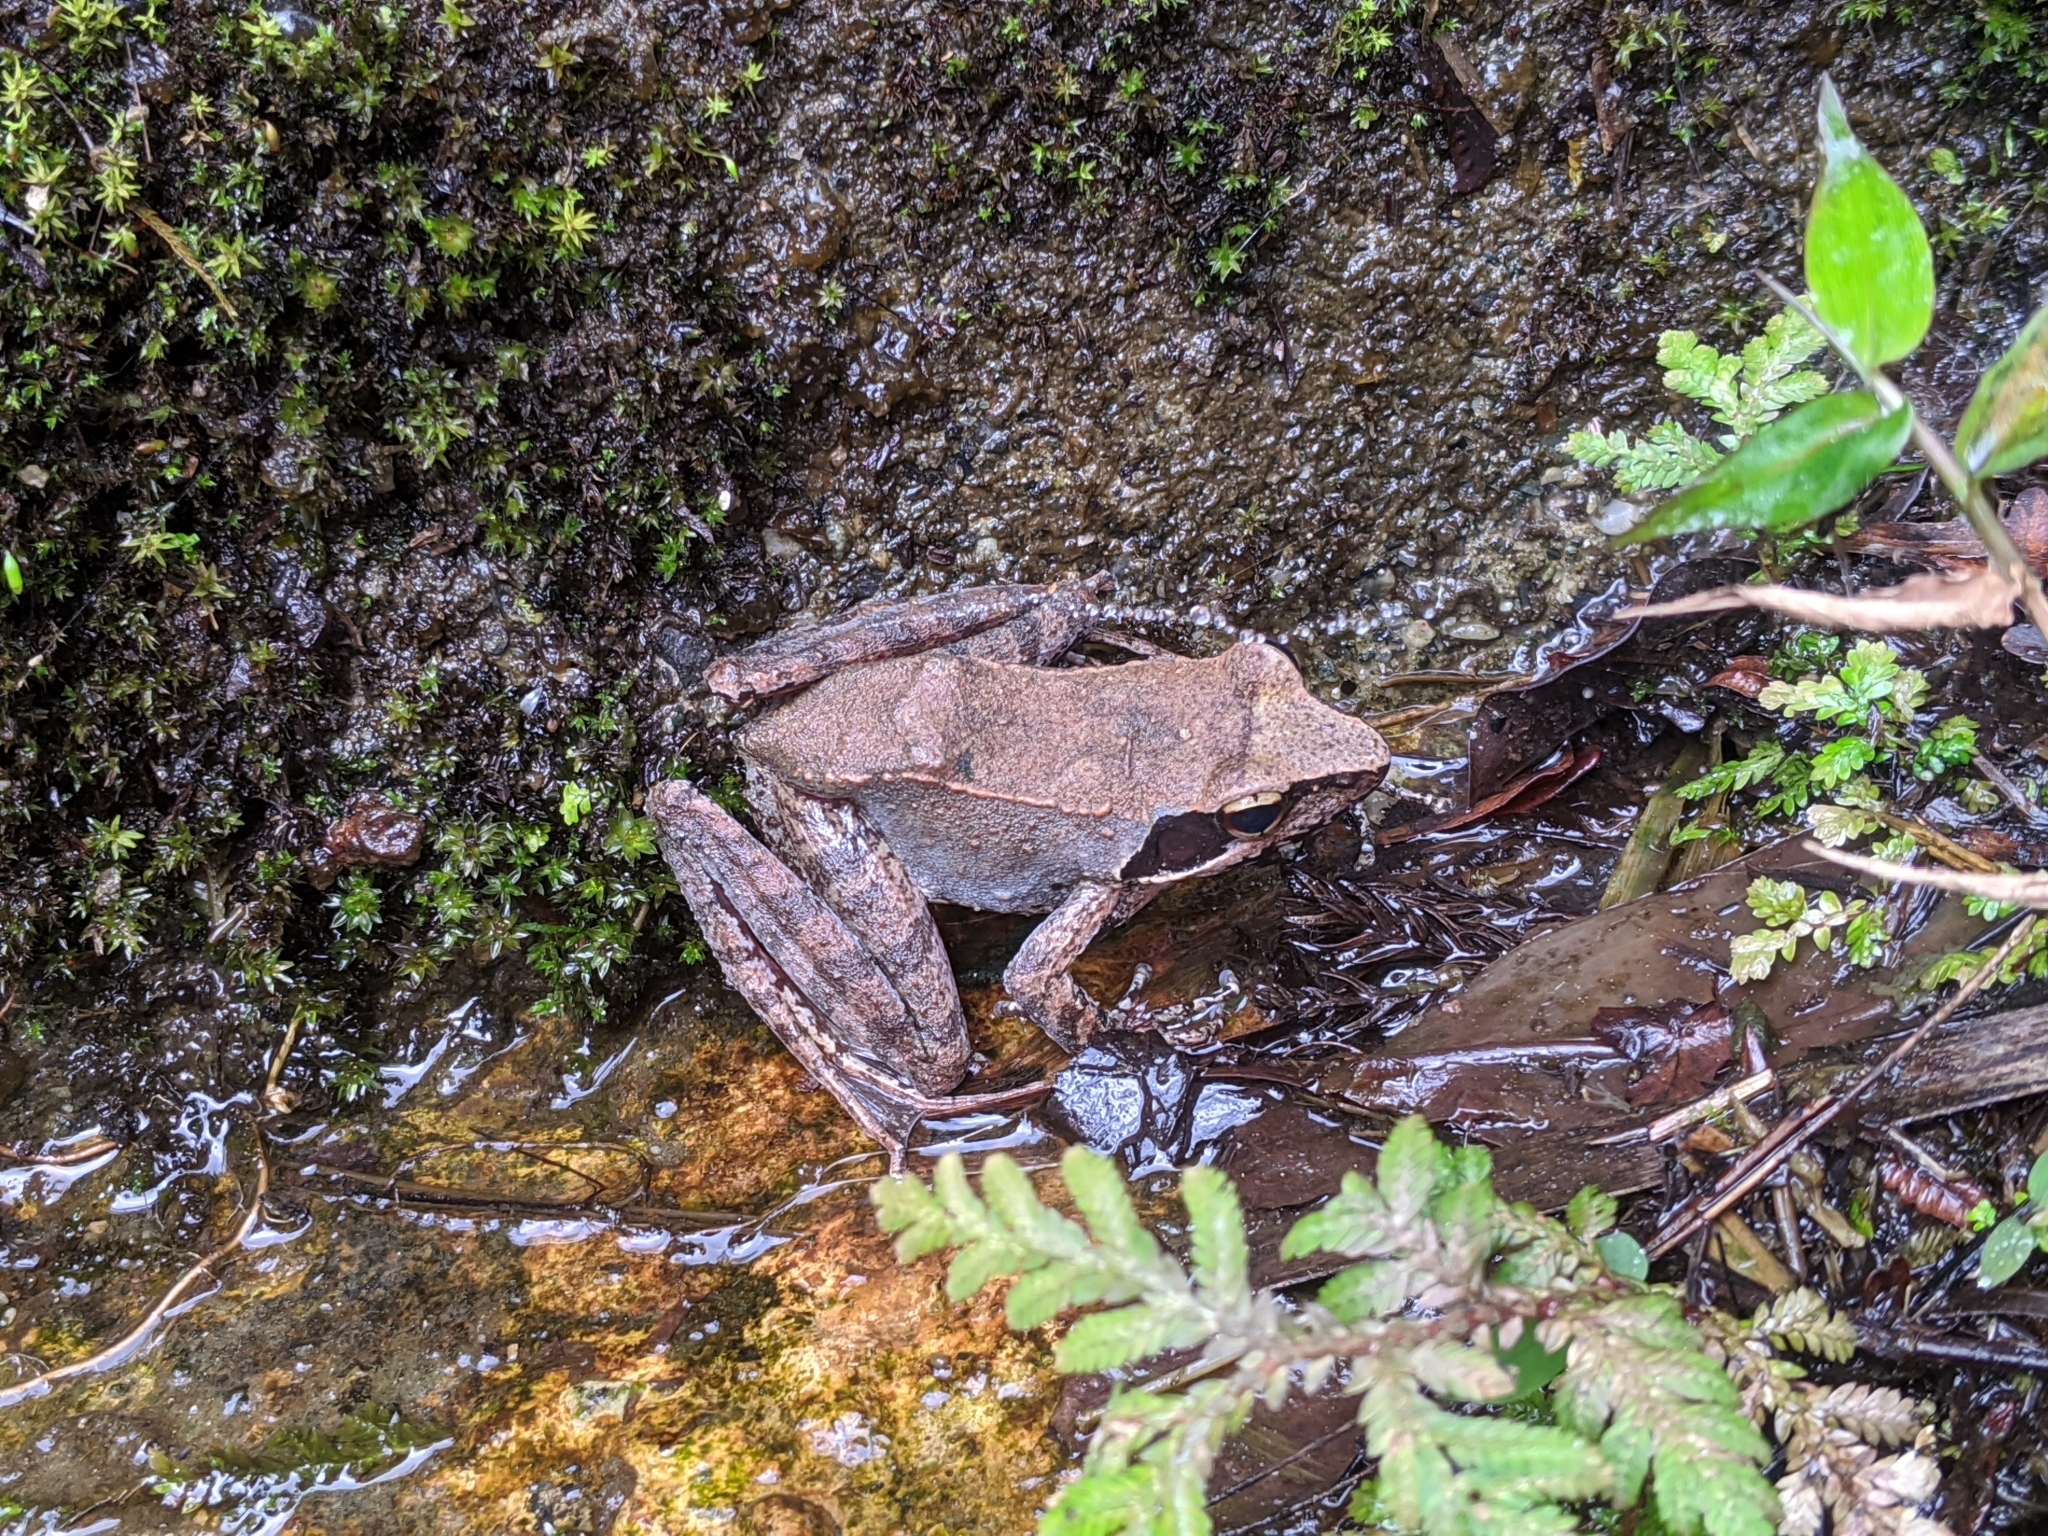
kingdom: Animalia
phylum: Chordata
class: Amphibia
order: Anura
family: Ranidae
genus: Rana
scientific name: Rana sauteri
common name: Kanshirei village frog
